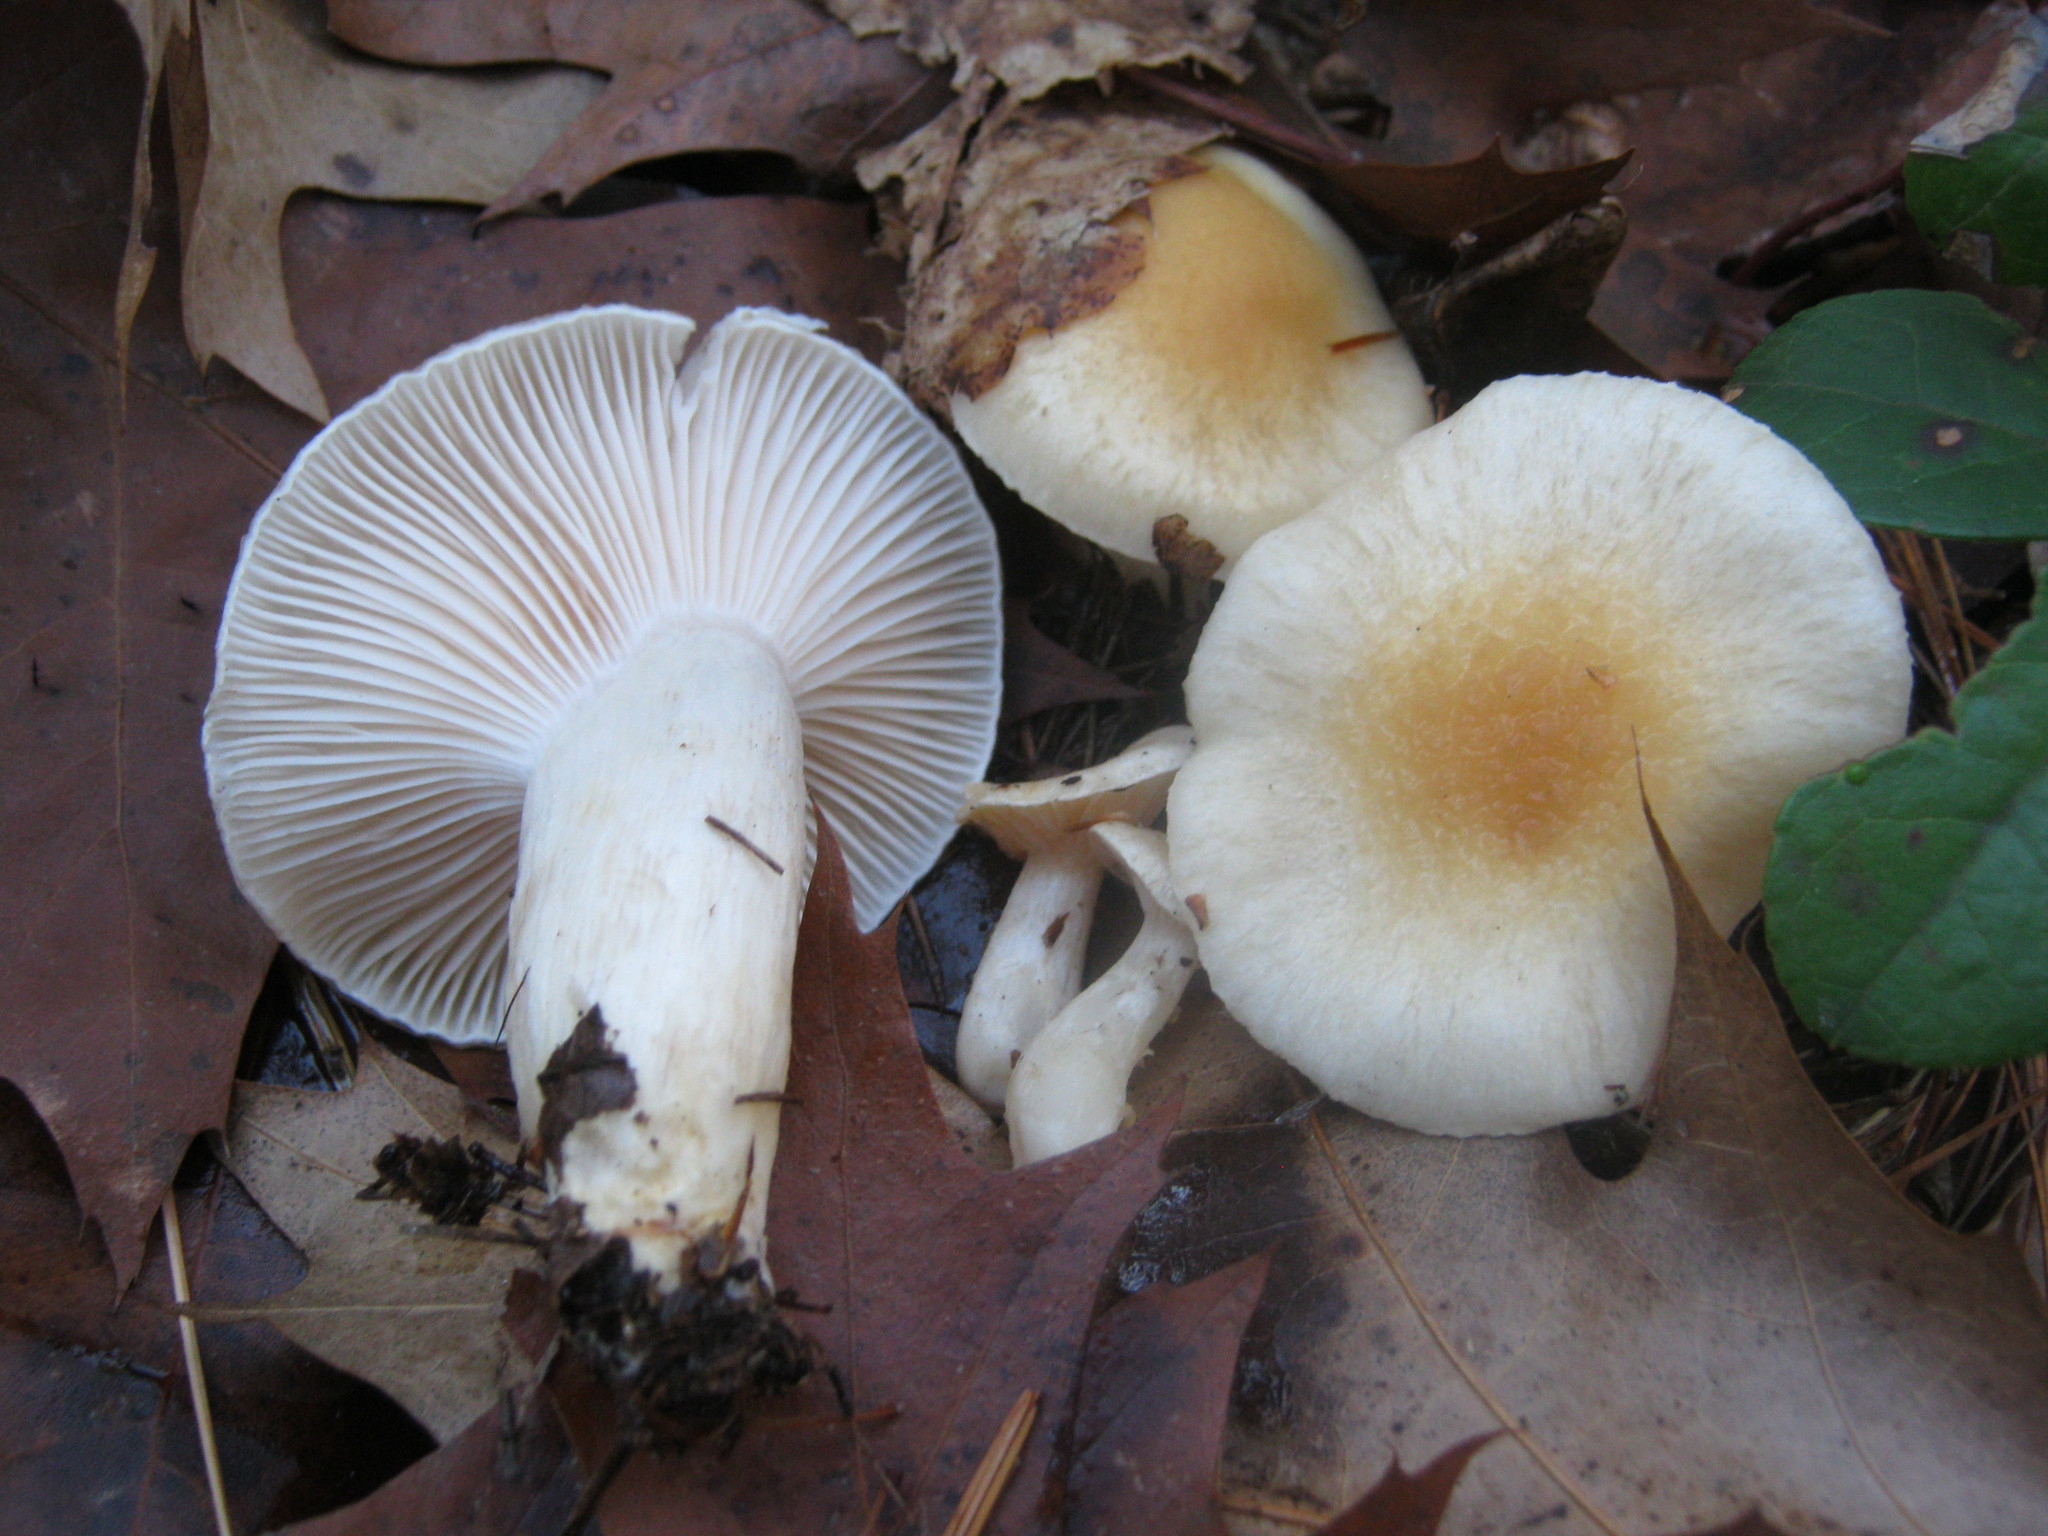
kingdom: Fungi
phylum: Basidiomycota
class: Agaricomycetes
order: Agaricales
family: Hygrophoraceae
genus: Hygrophorus
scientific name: Hygrophorus ligatus
